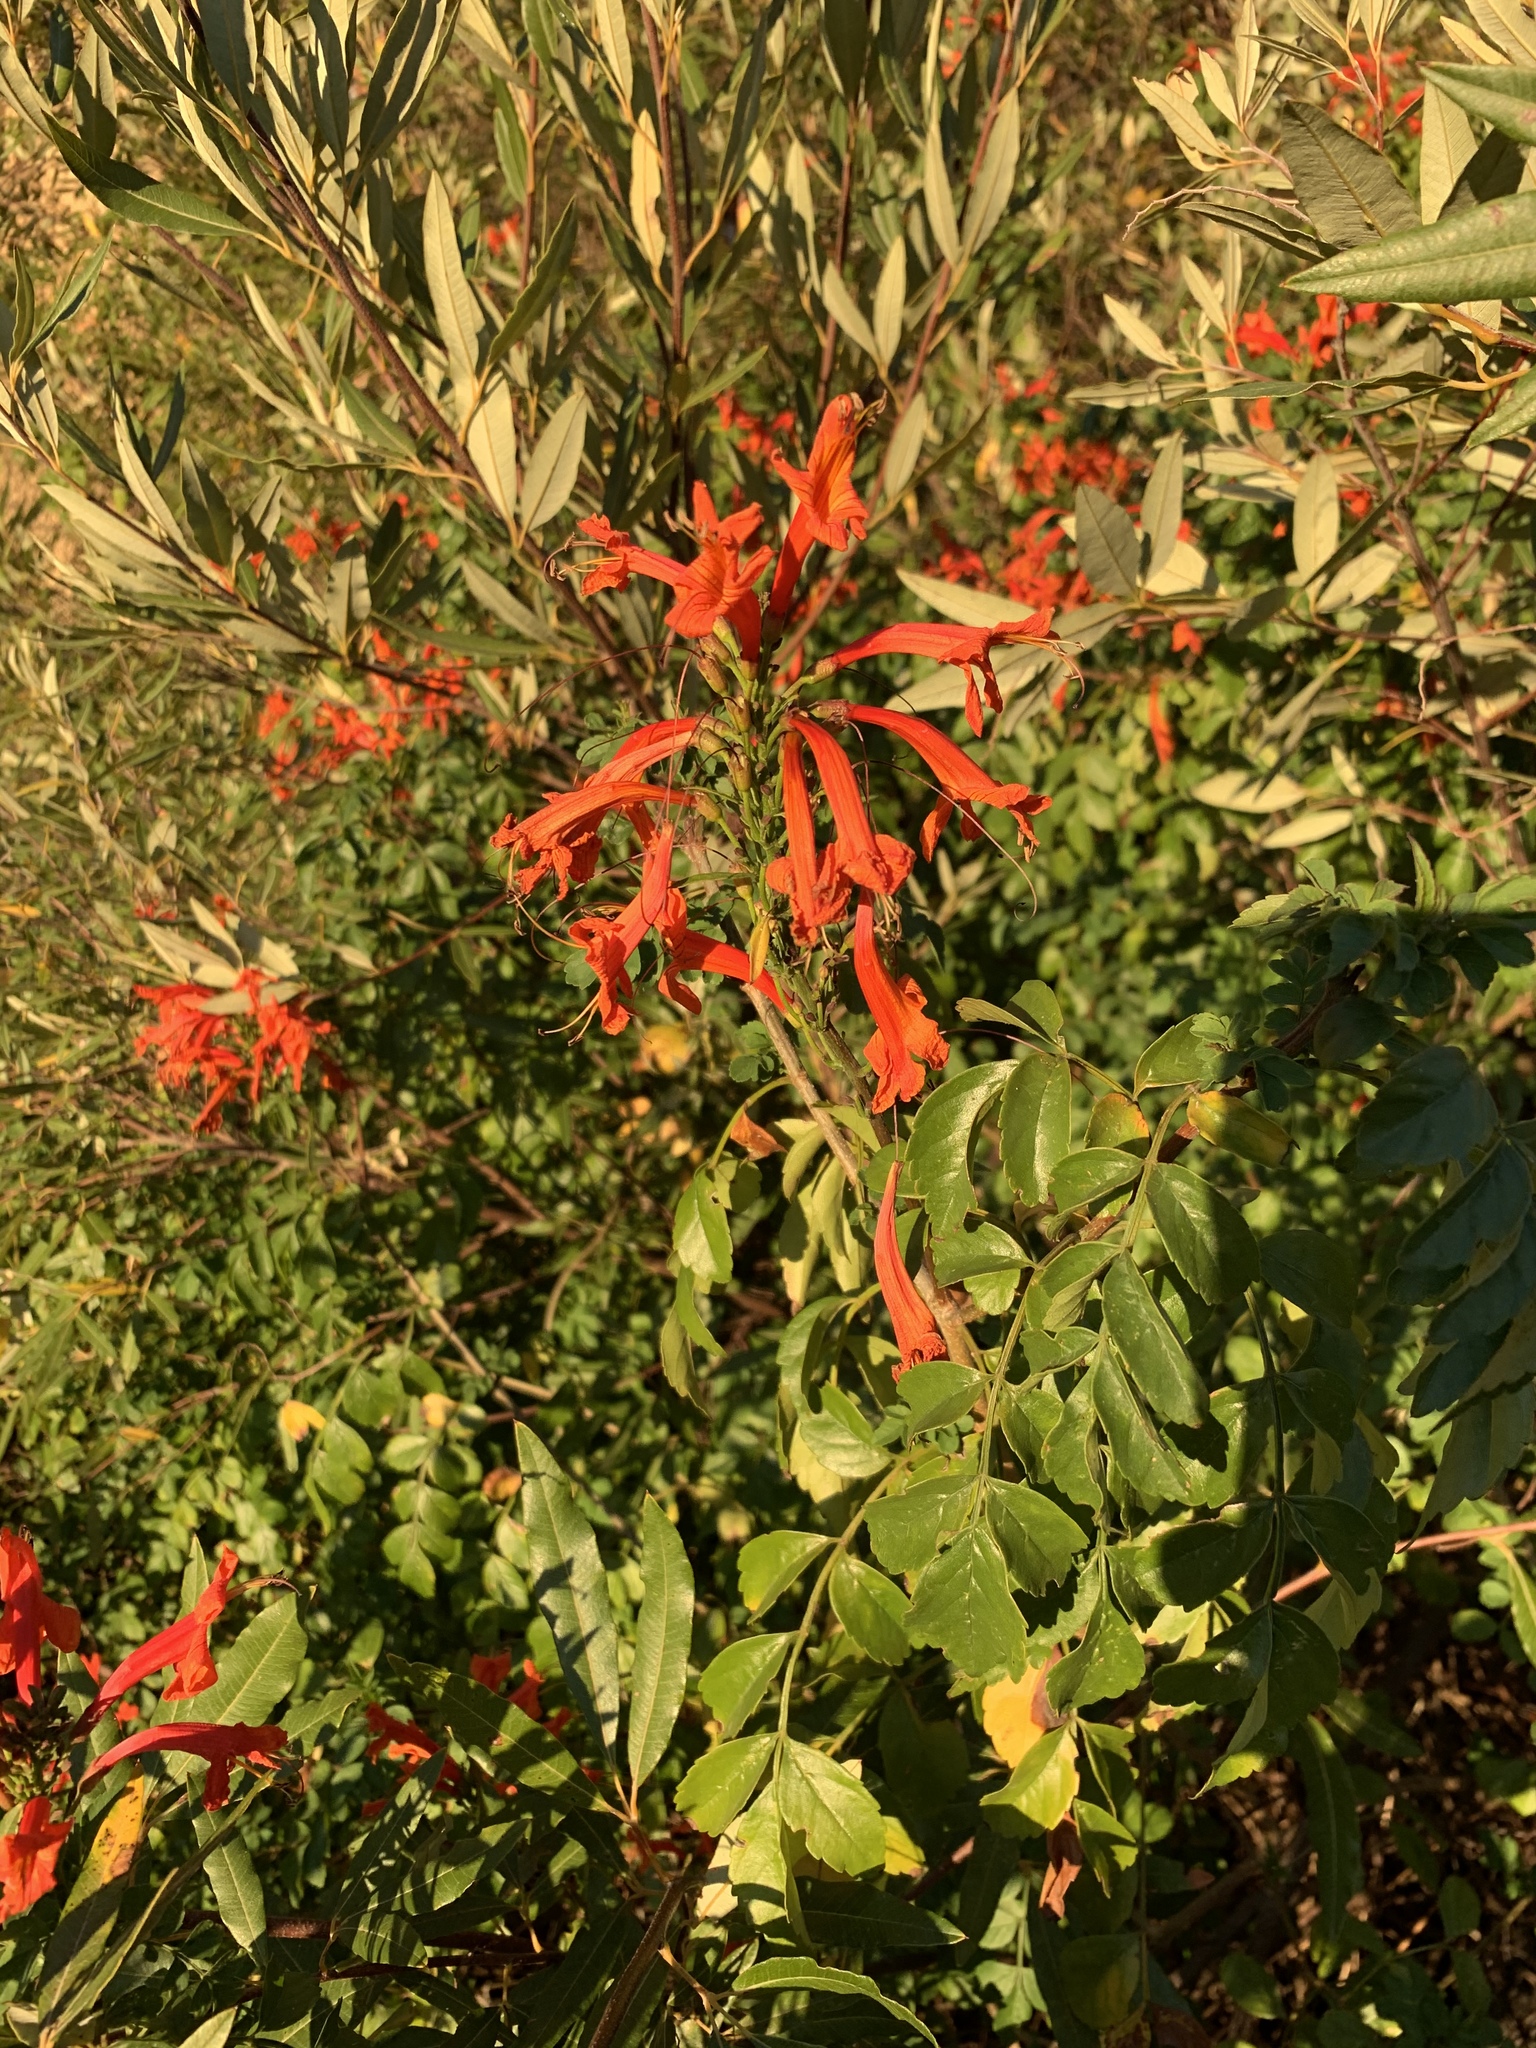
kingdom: Plantae
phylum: Tracheophyta
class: Magnoliopsida
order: Lamiales
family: Bignoniaceae
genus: Tecomaria
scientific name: Tecomaria capensis
